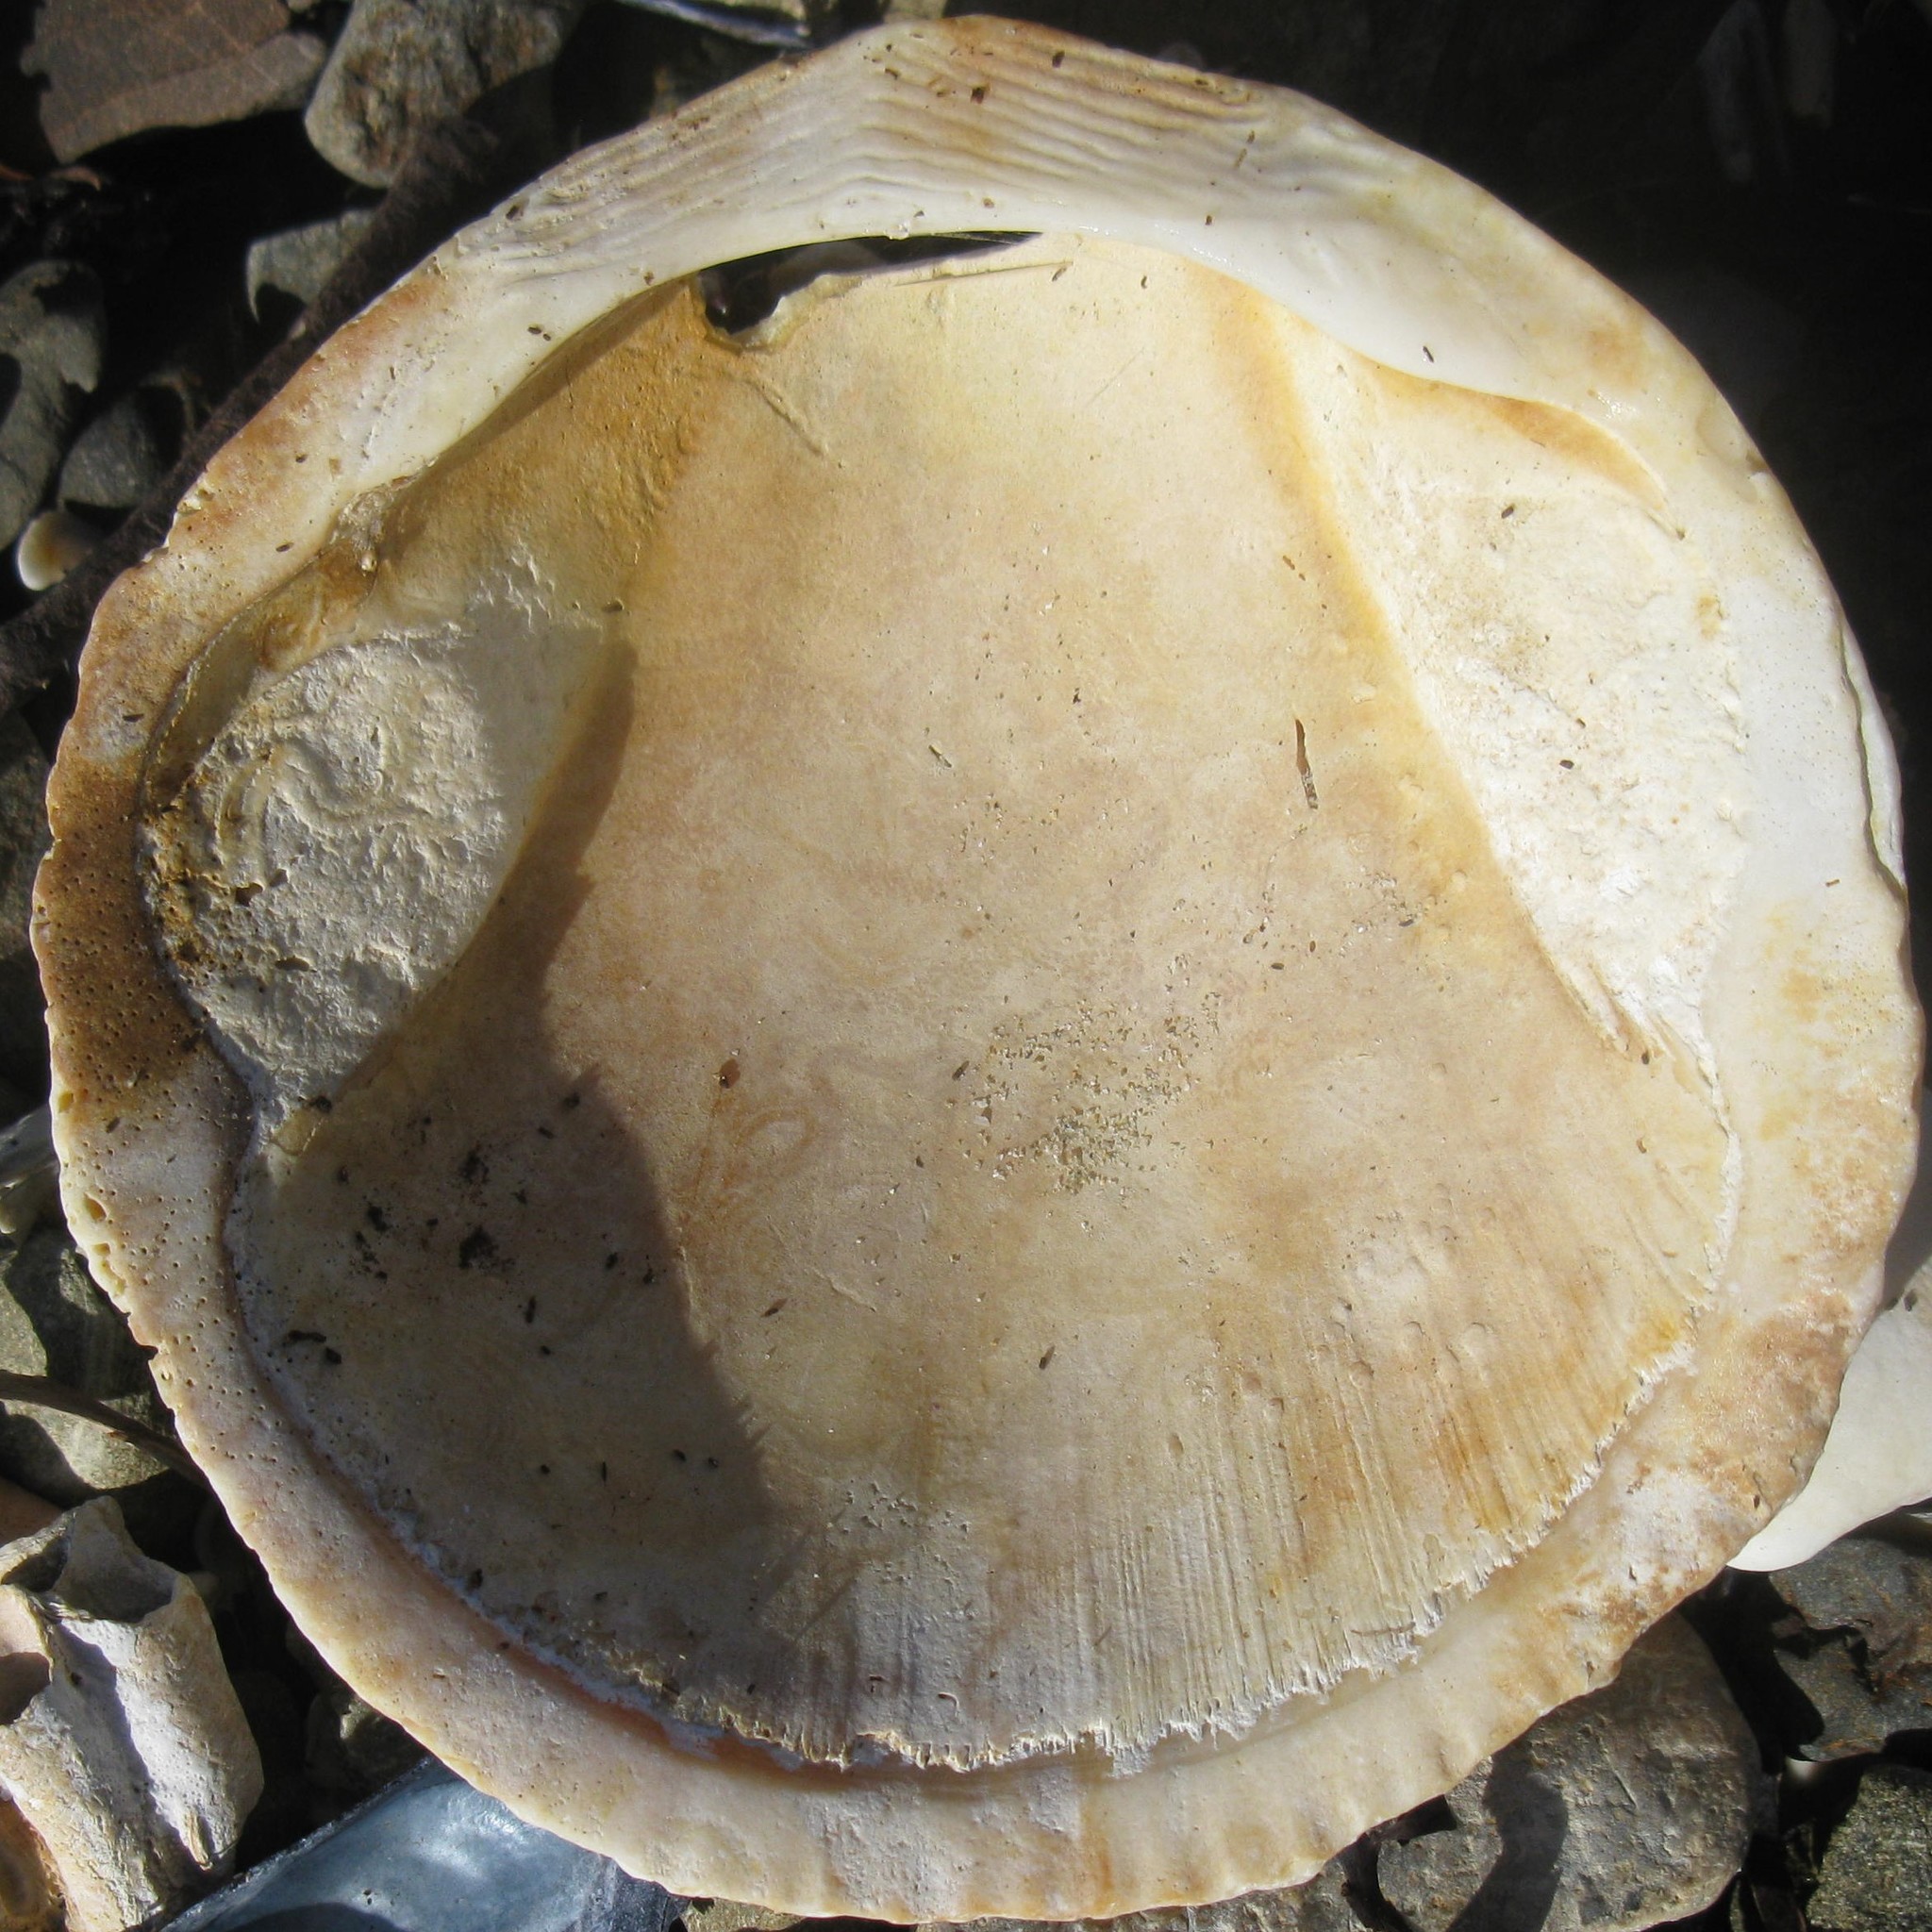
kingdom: Animalia
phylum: Mollusca
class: Bivalvia
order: Arcida
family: Glycymerididae
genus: Tucetona
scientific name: Tucetona laticostata
